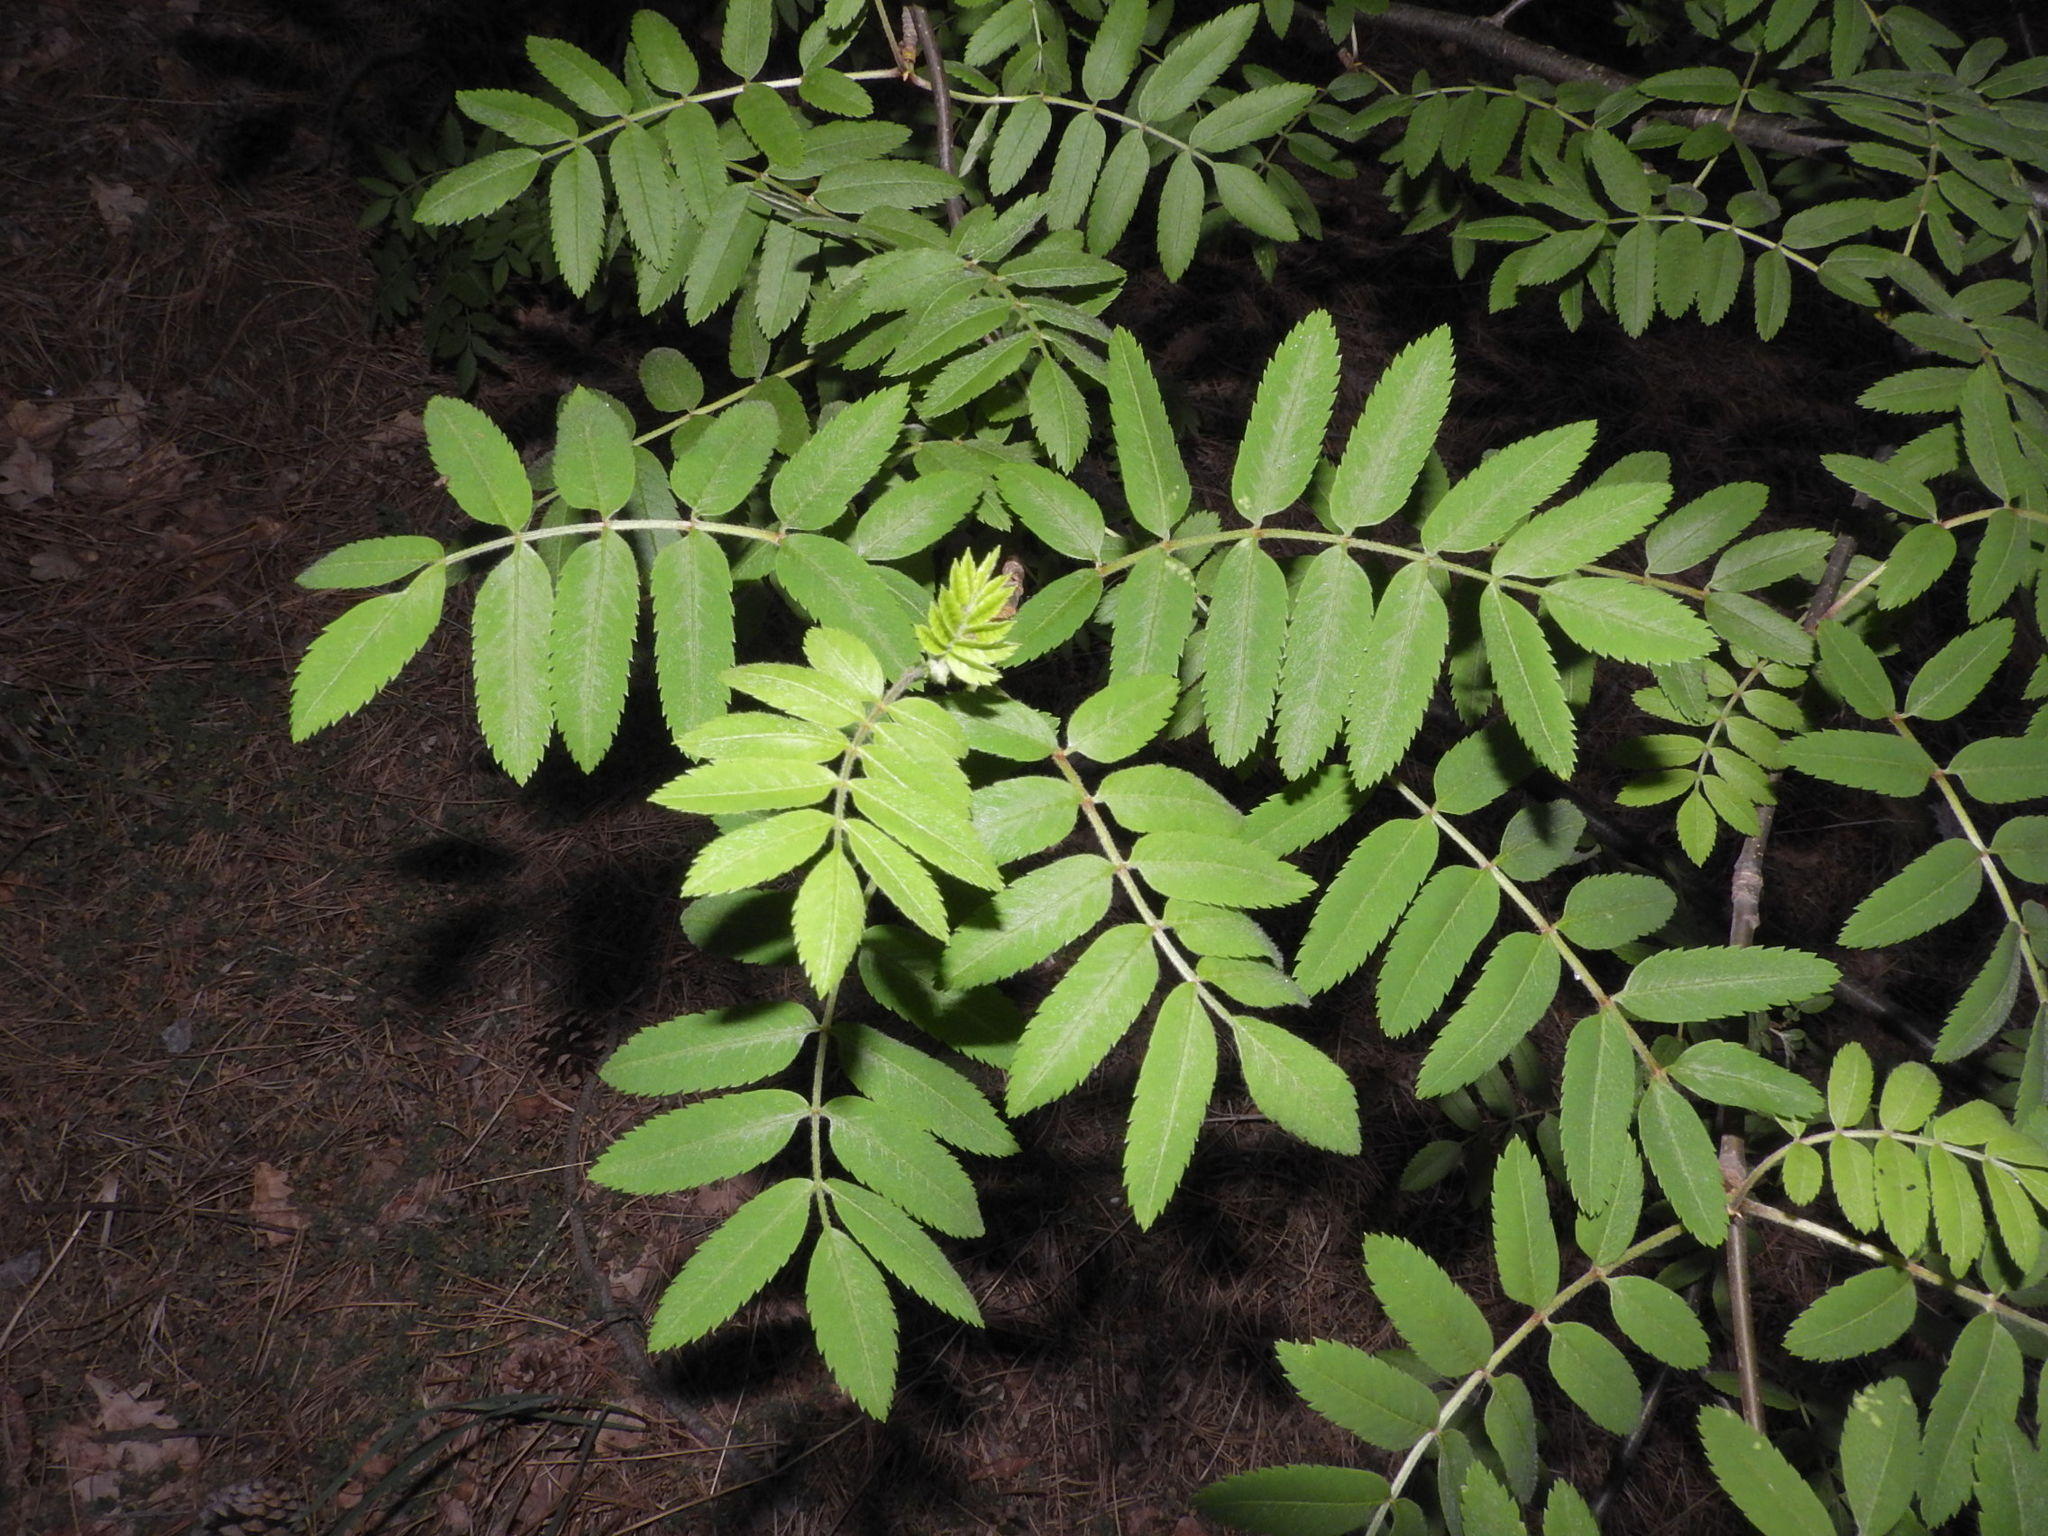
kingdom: Plantae
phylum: Tracheophyta
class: Magnoliopsida
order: Rosales
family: Rosaceae
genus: Sorbus
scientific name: Sorbus aucuparia
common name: Rowan
